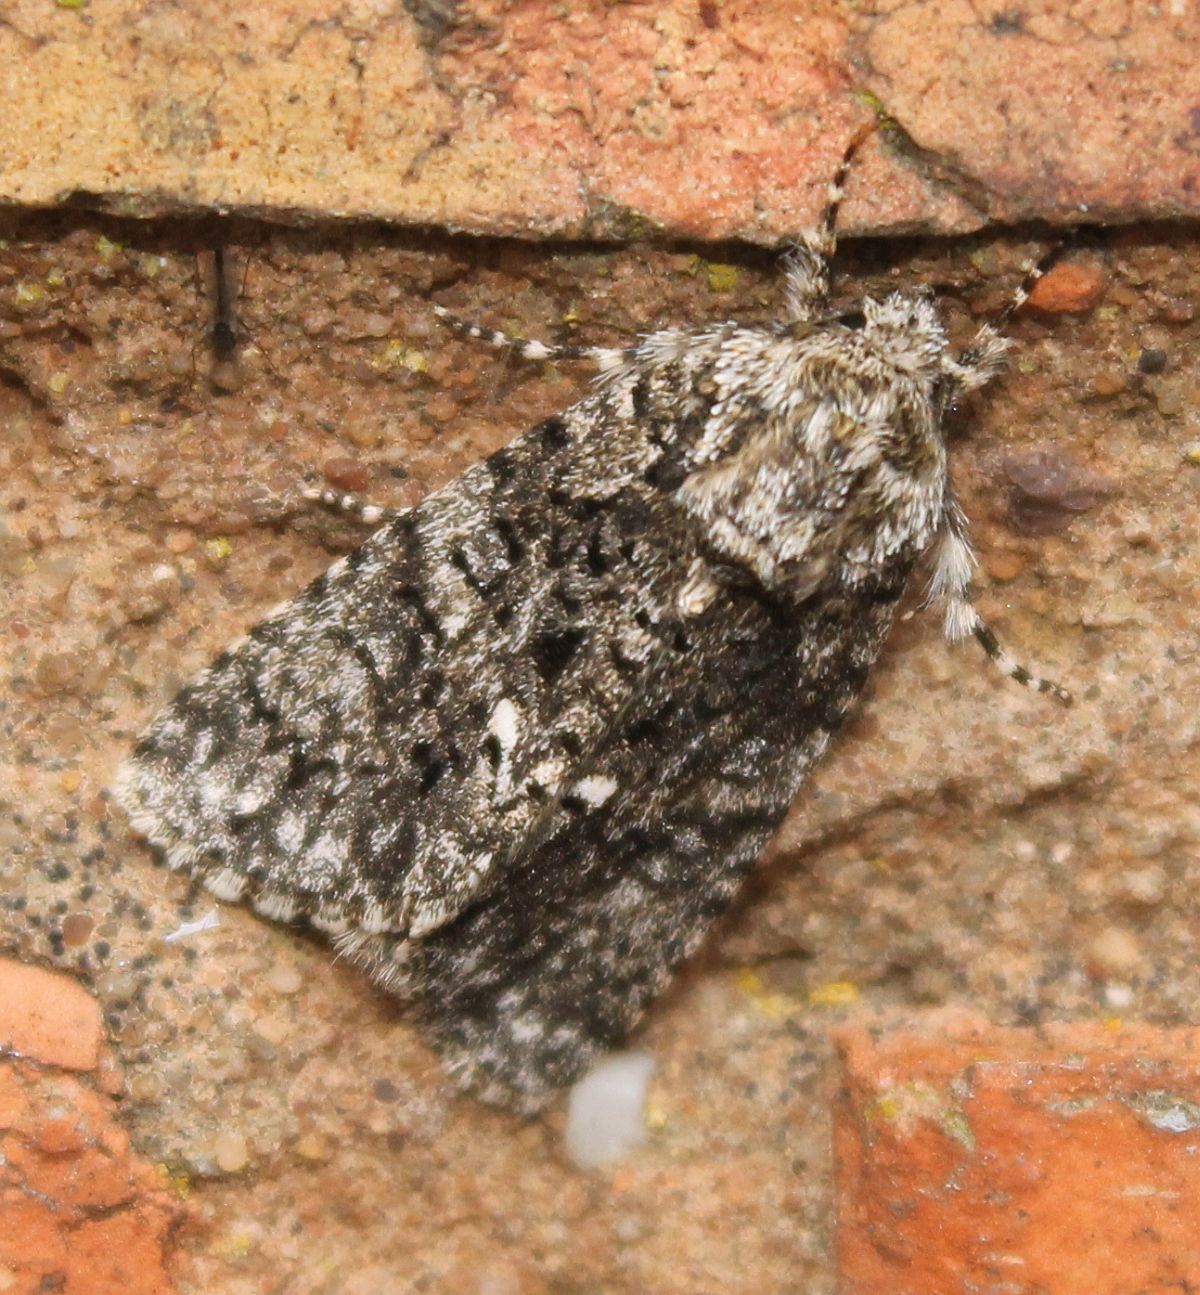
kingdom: Animalia
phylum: Arthropoda
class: Insecta
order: Lepidoptera
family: Noctuidae
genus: Acronicta
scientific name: Acronicta rumicis
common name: Knot grass
